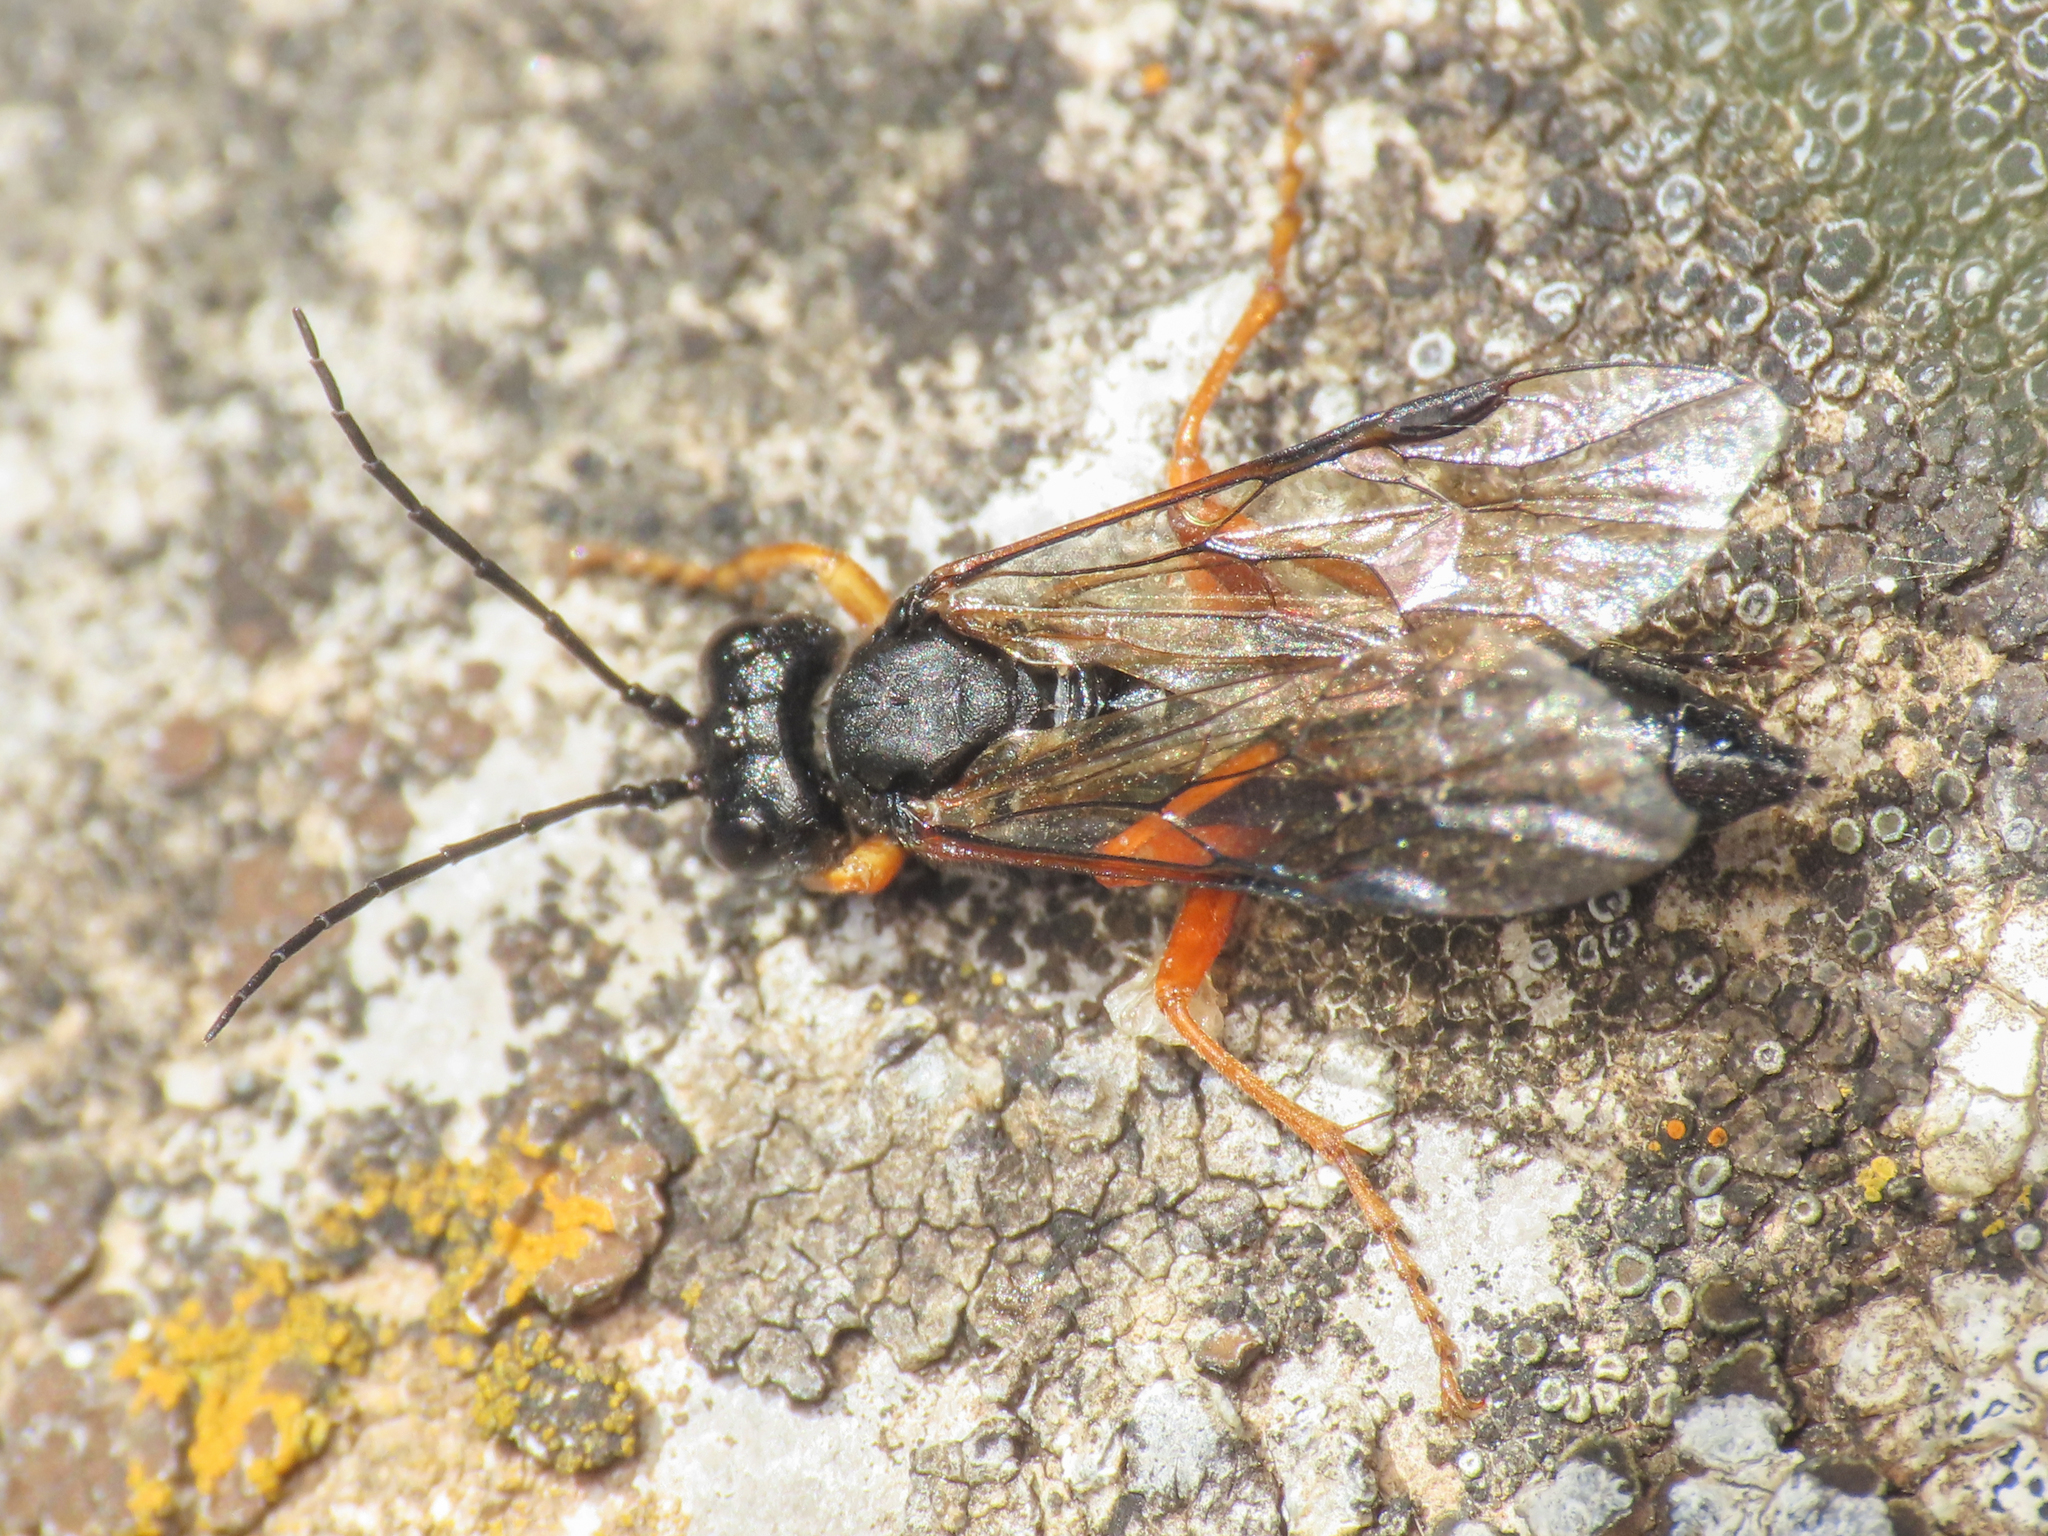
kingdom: Animalia
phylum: Arthropoda
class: Insecta
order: Hymenoptera
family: Tenthredinidae
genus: Tenthredo
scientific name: Tenthredo atra
